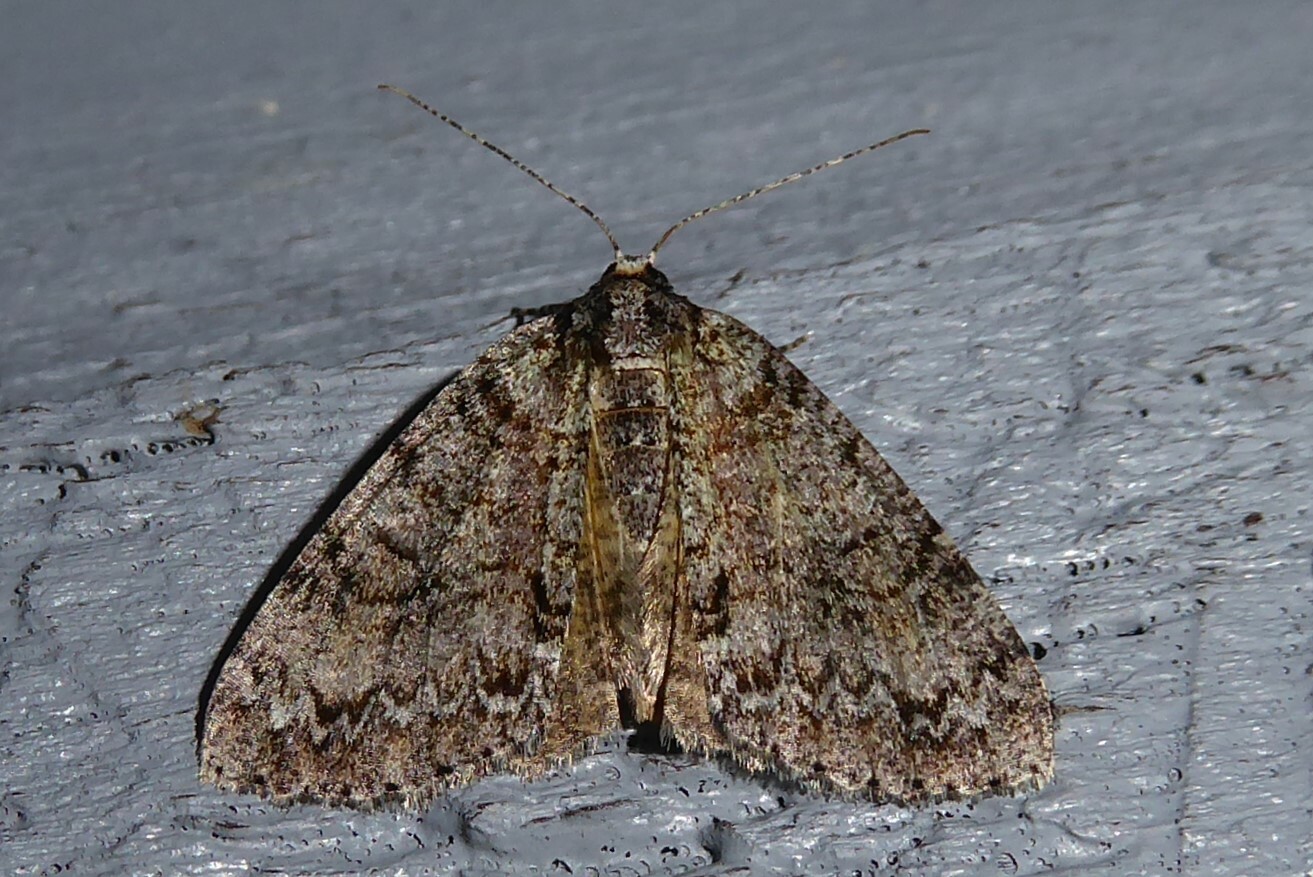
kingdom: Animalia
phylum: Arthropoda
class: Insecta
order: Lepidoptera
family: Geometridae
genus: Pseudocoremia
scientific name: Pseudocoremia suavis
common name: Common forest looper
